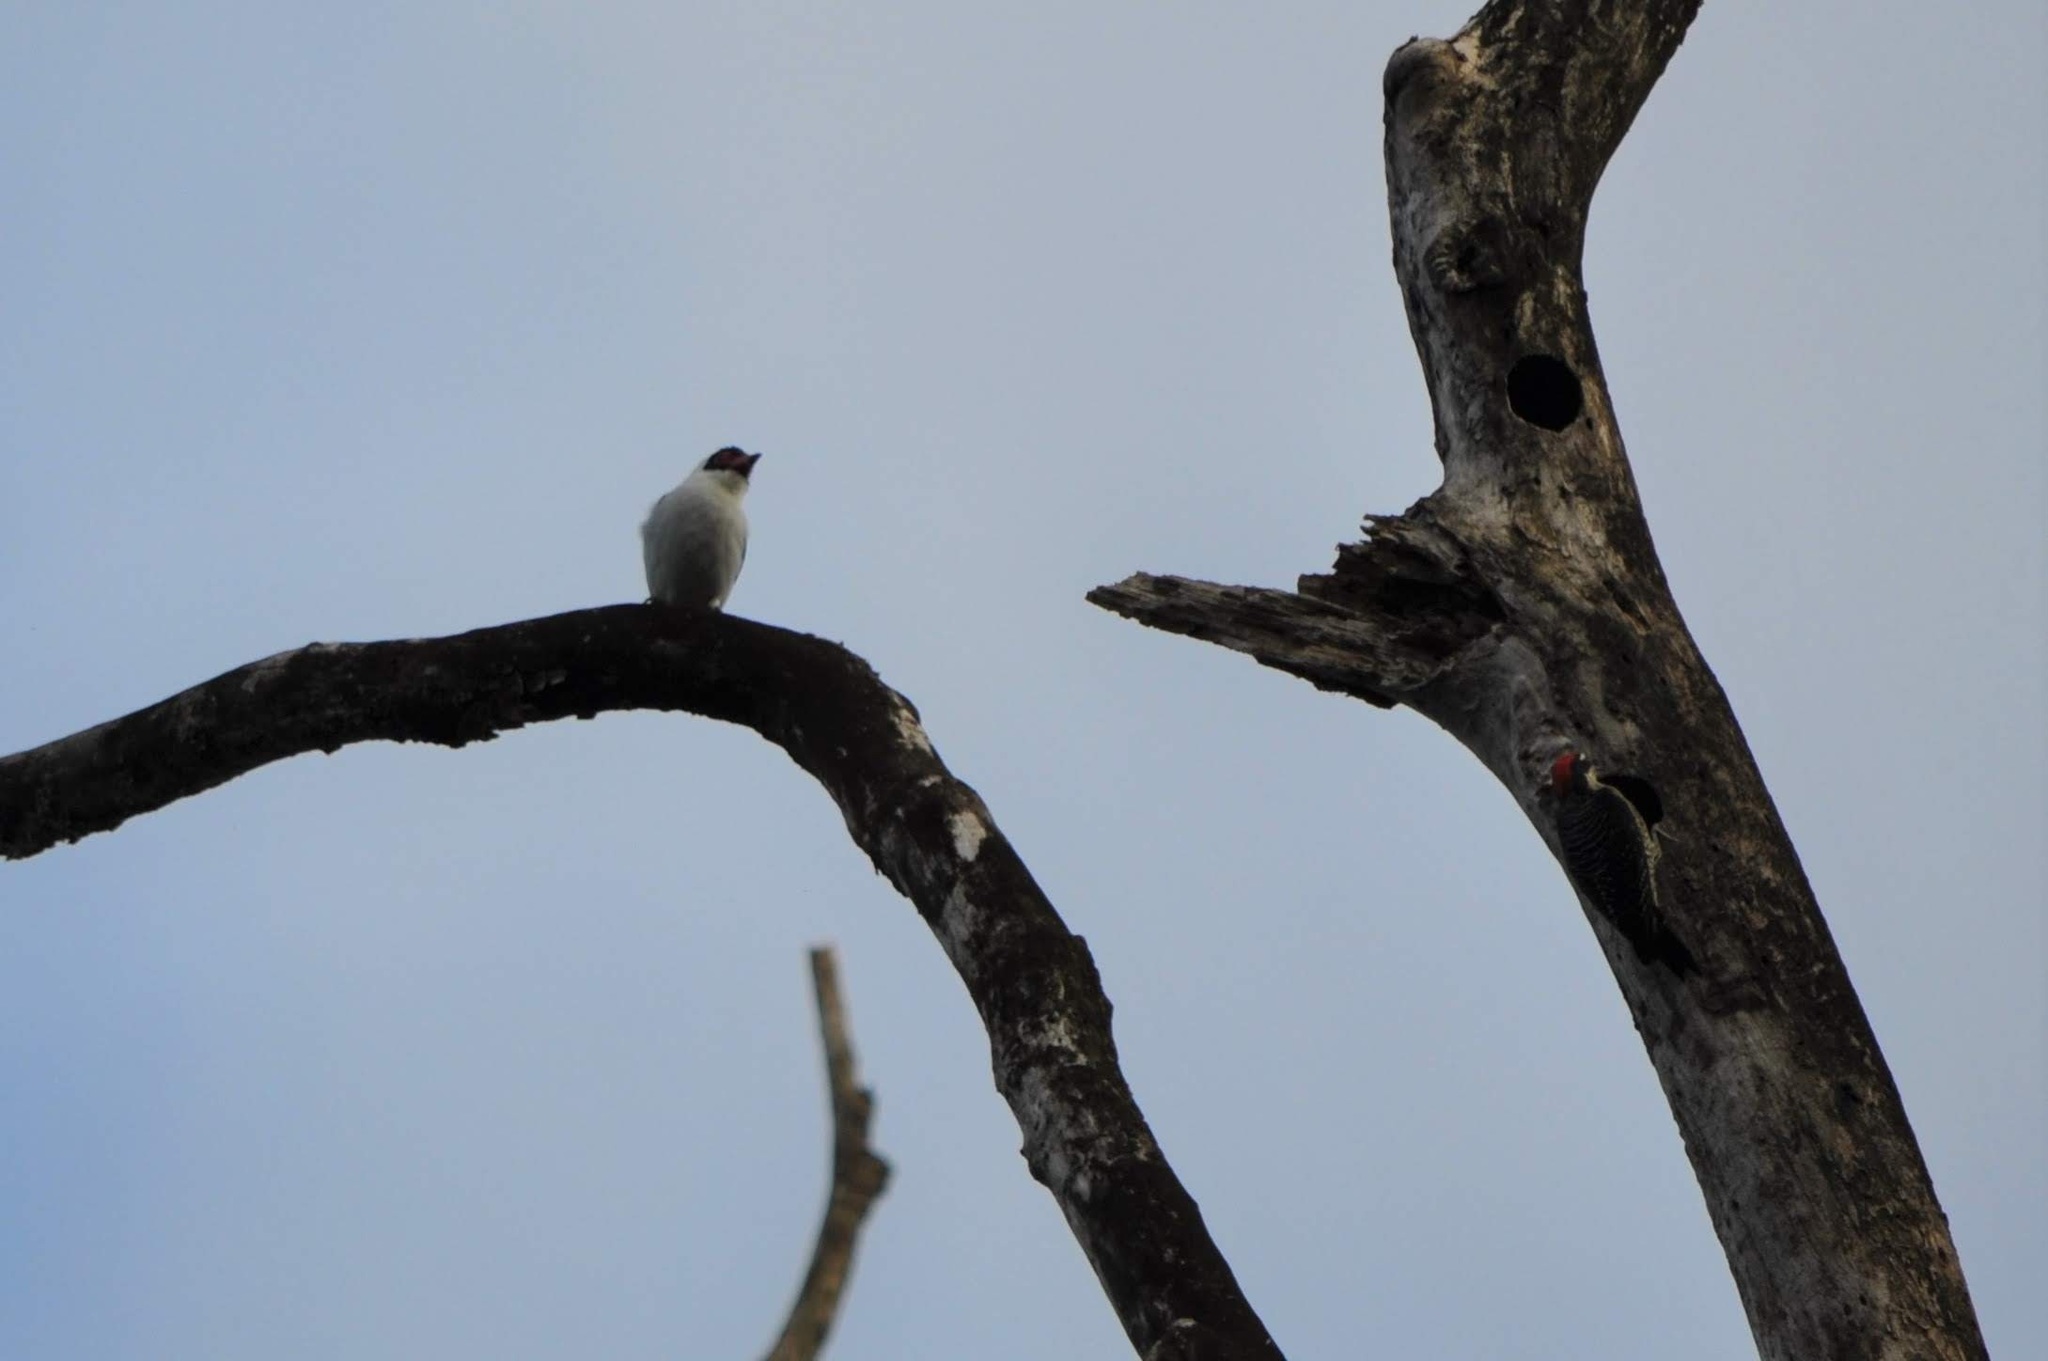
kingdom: Animalia
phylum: Chordata
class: Aves
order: Passeriformes
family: Cotingidae
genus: Tityra
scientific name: Tityra semifasciata
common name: Masked tityra
